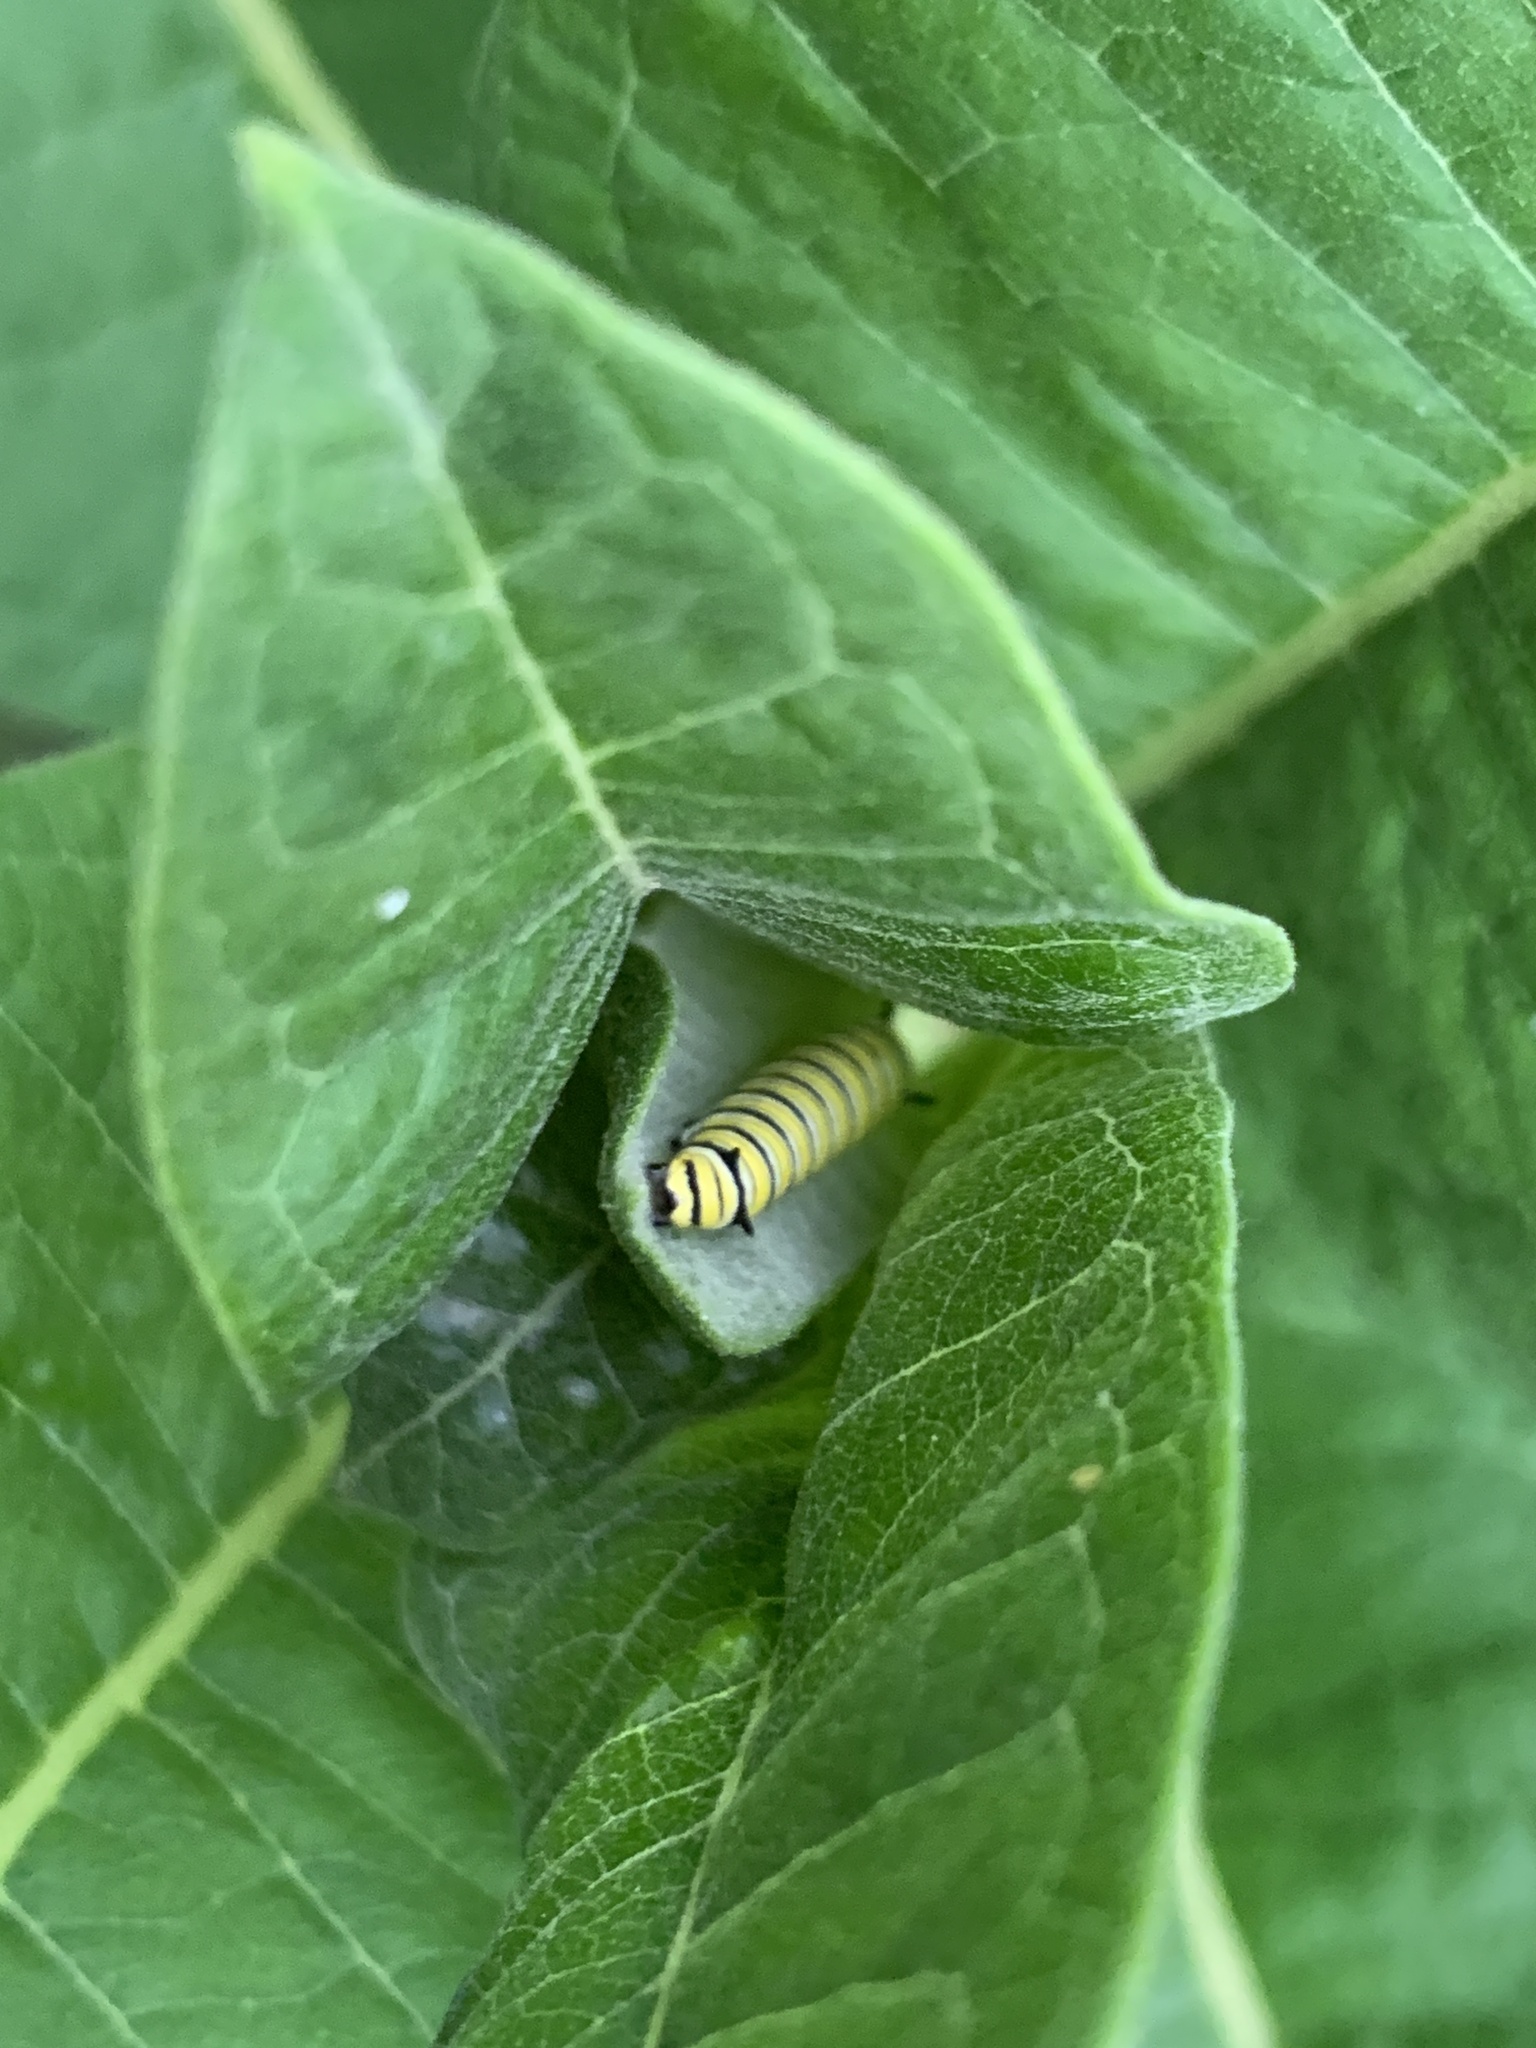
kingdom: Animalia
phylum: Arthropoda
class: Insecta
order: Lepidoptera
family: Nymphalidae
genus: Danaus
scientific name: Danaus plexippus
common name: Monarch
